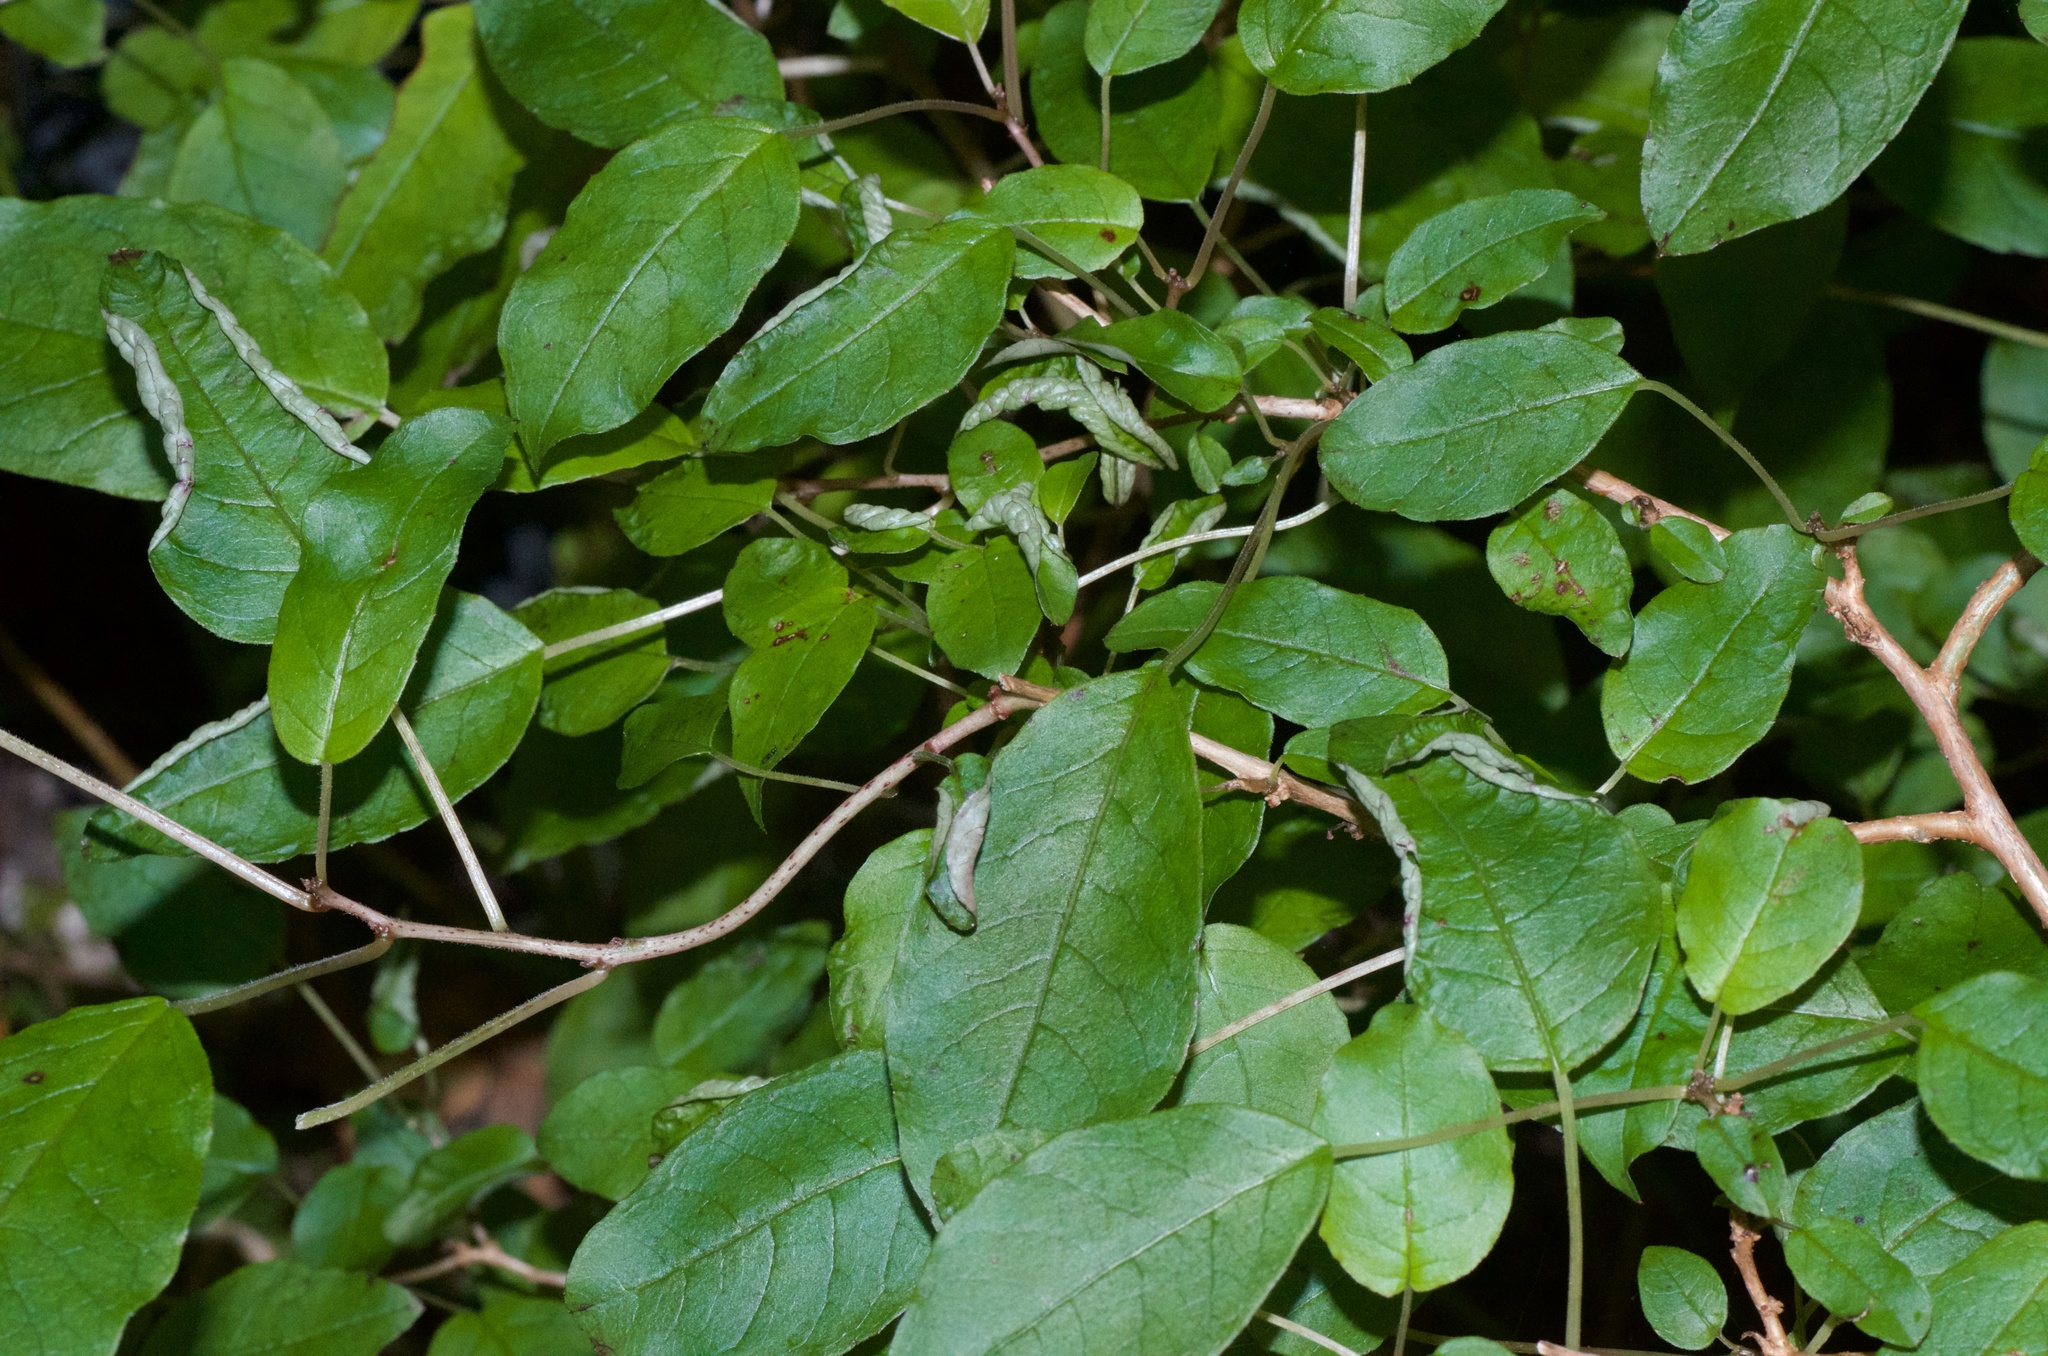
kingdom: Plantae
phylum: Tracheophyta
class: Magnoliopsida
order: Myrtales
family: Onagraceae
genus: Fuchsia
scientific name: Fuchsia colensoi
